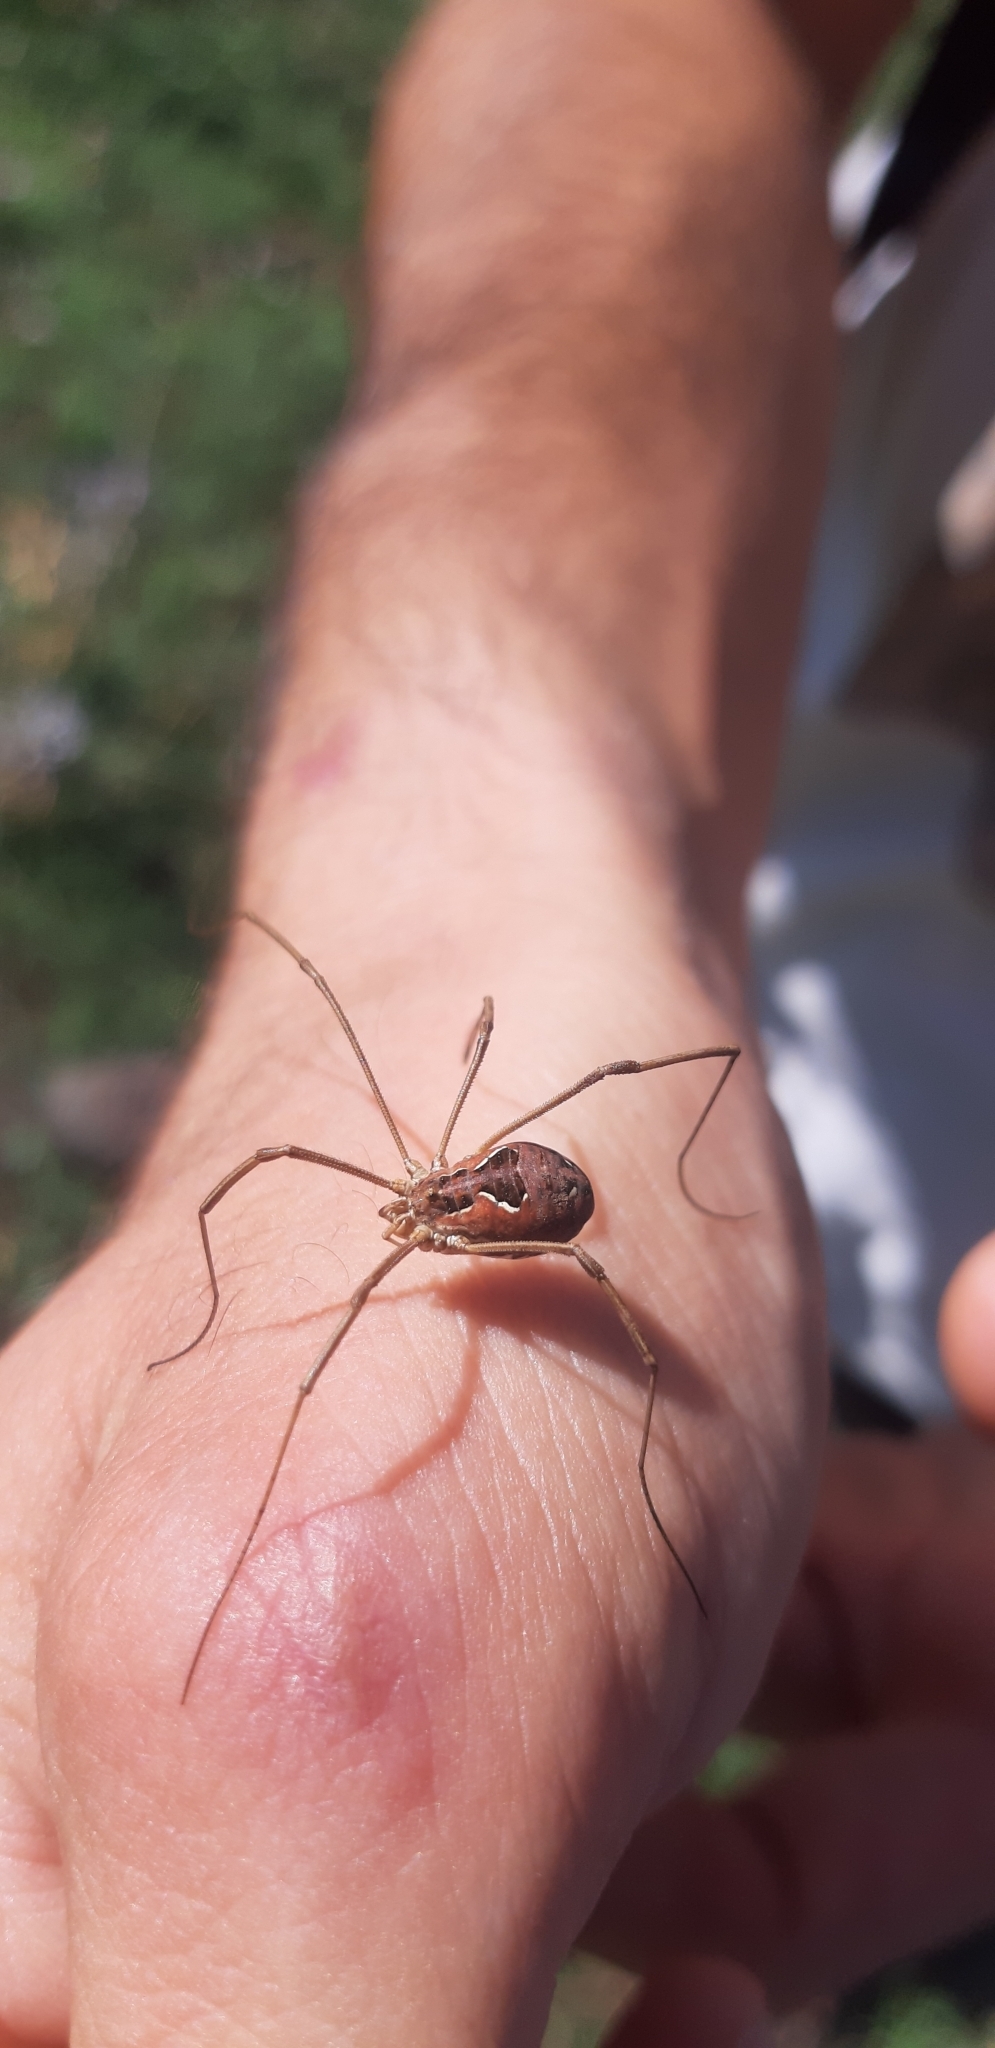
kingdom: Animalia
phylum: Arthropoda
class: Arachnida
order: Opiliones
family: Phalangiidae
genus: Metaphalangium
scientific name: Metaphalangium cirtanum
